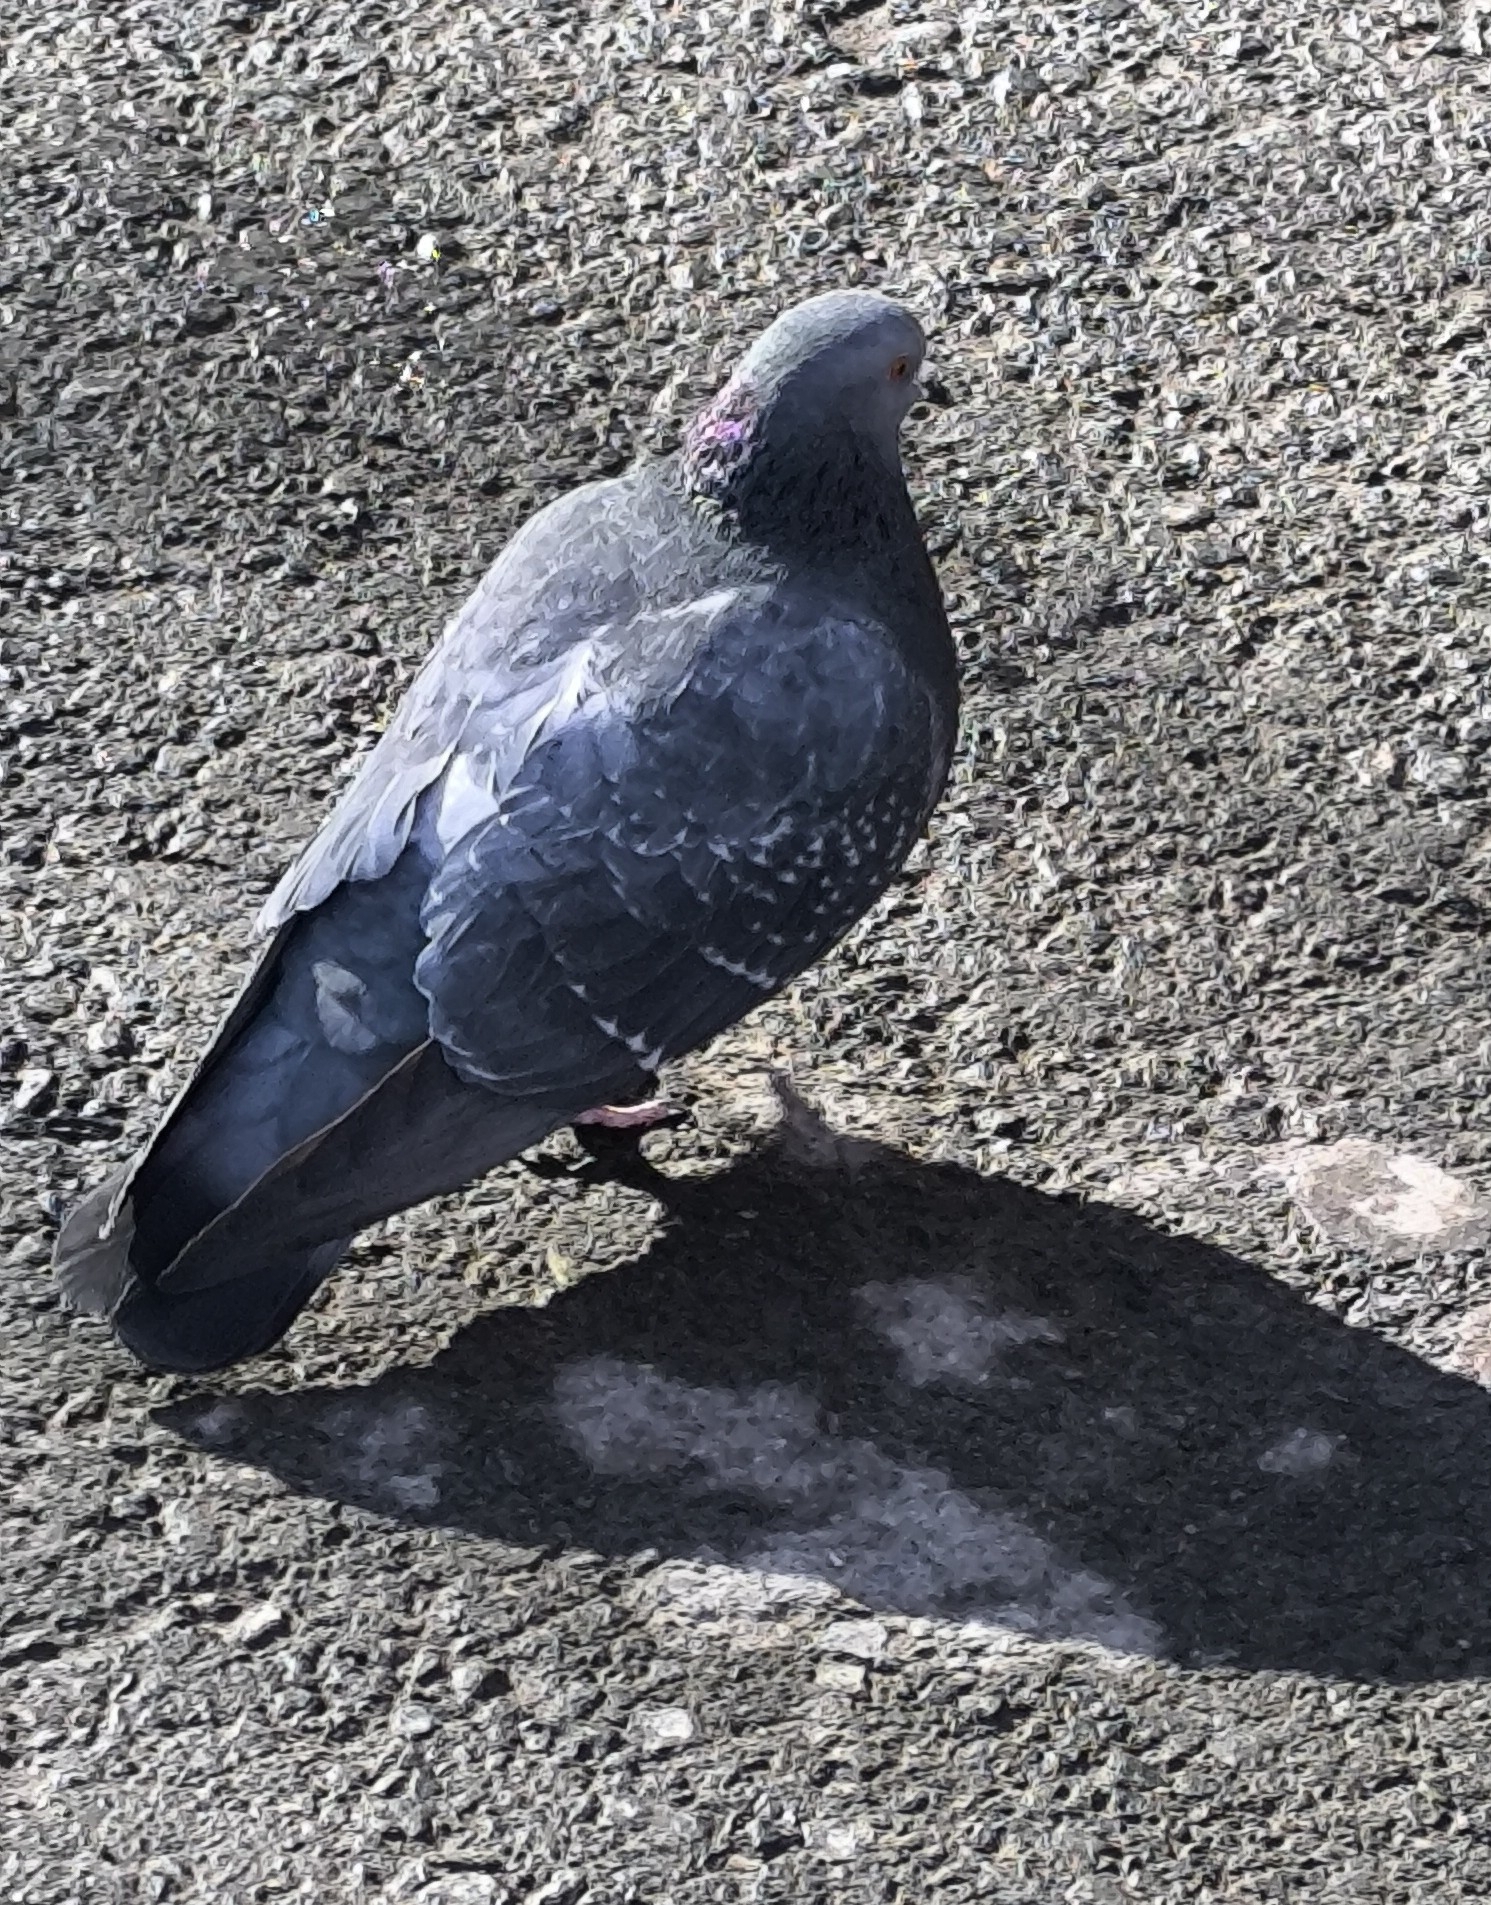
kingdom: Animalia
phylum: Chordata
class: Aves
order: Columbiformes
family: Columbidae
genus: Columba
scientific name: Columba livia
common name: Rock pigeon
